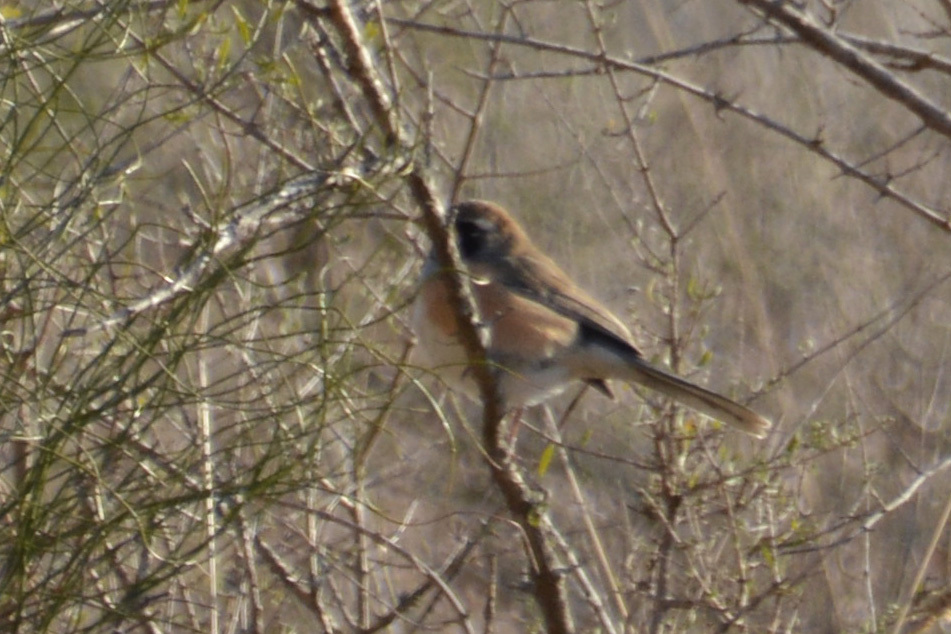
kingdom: Animalia
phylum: Chordata
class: Aves
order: Passeriformes
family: Thraupidae
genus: Saltatricula
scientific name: Saltatricula multicolor
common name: Many-colored chaco finch
